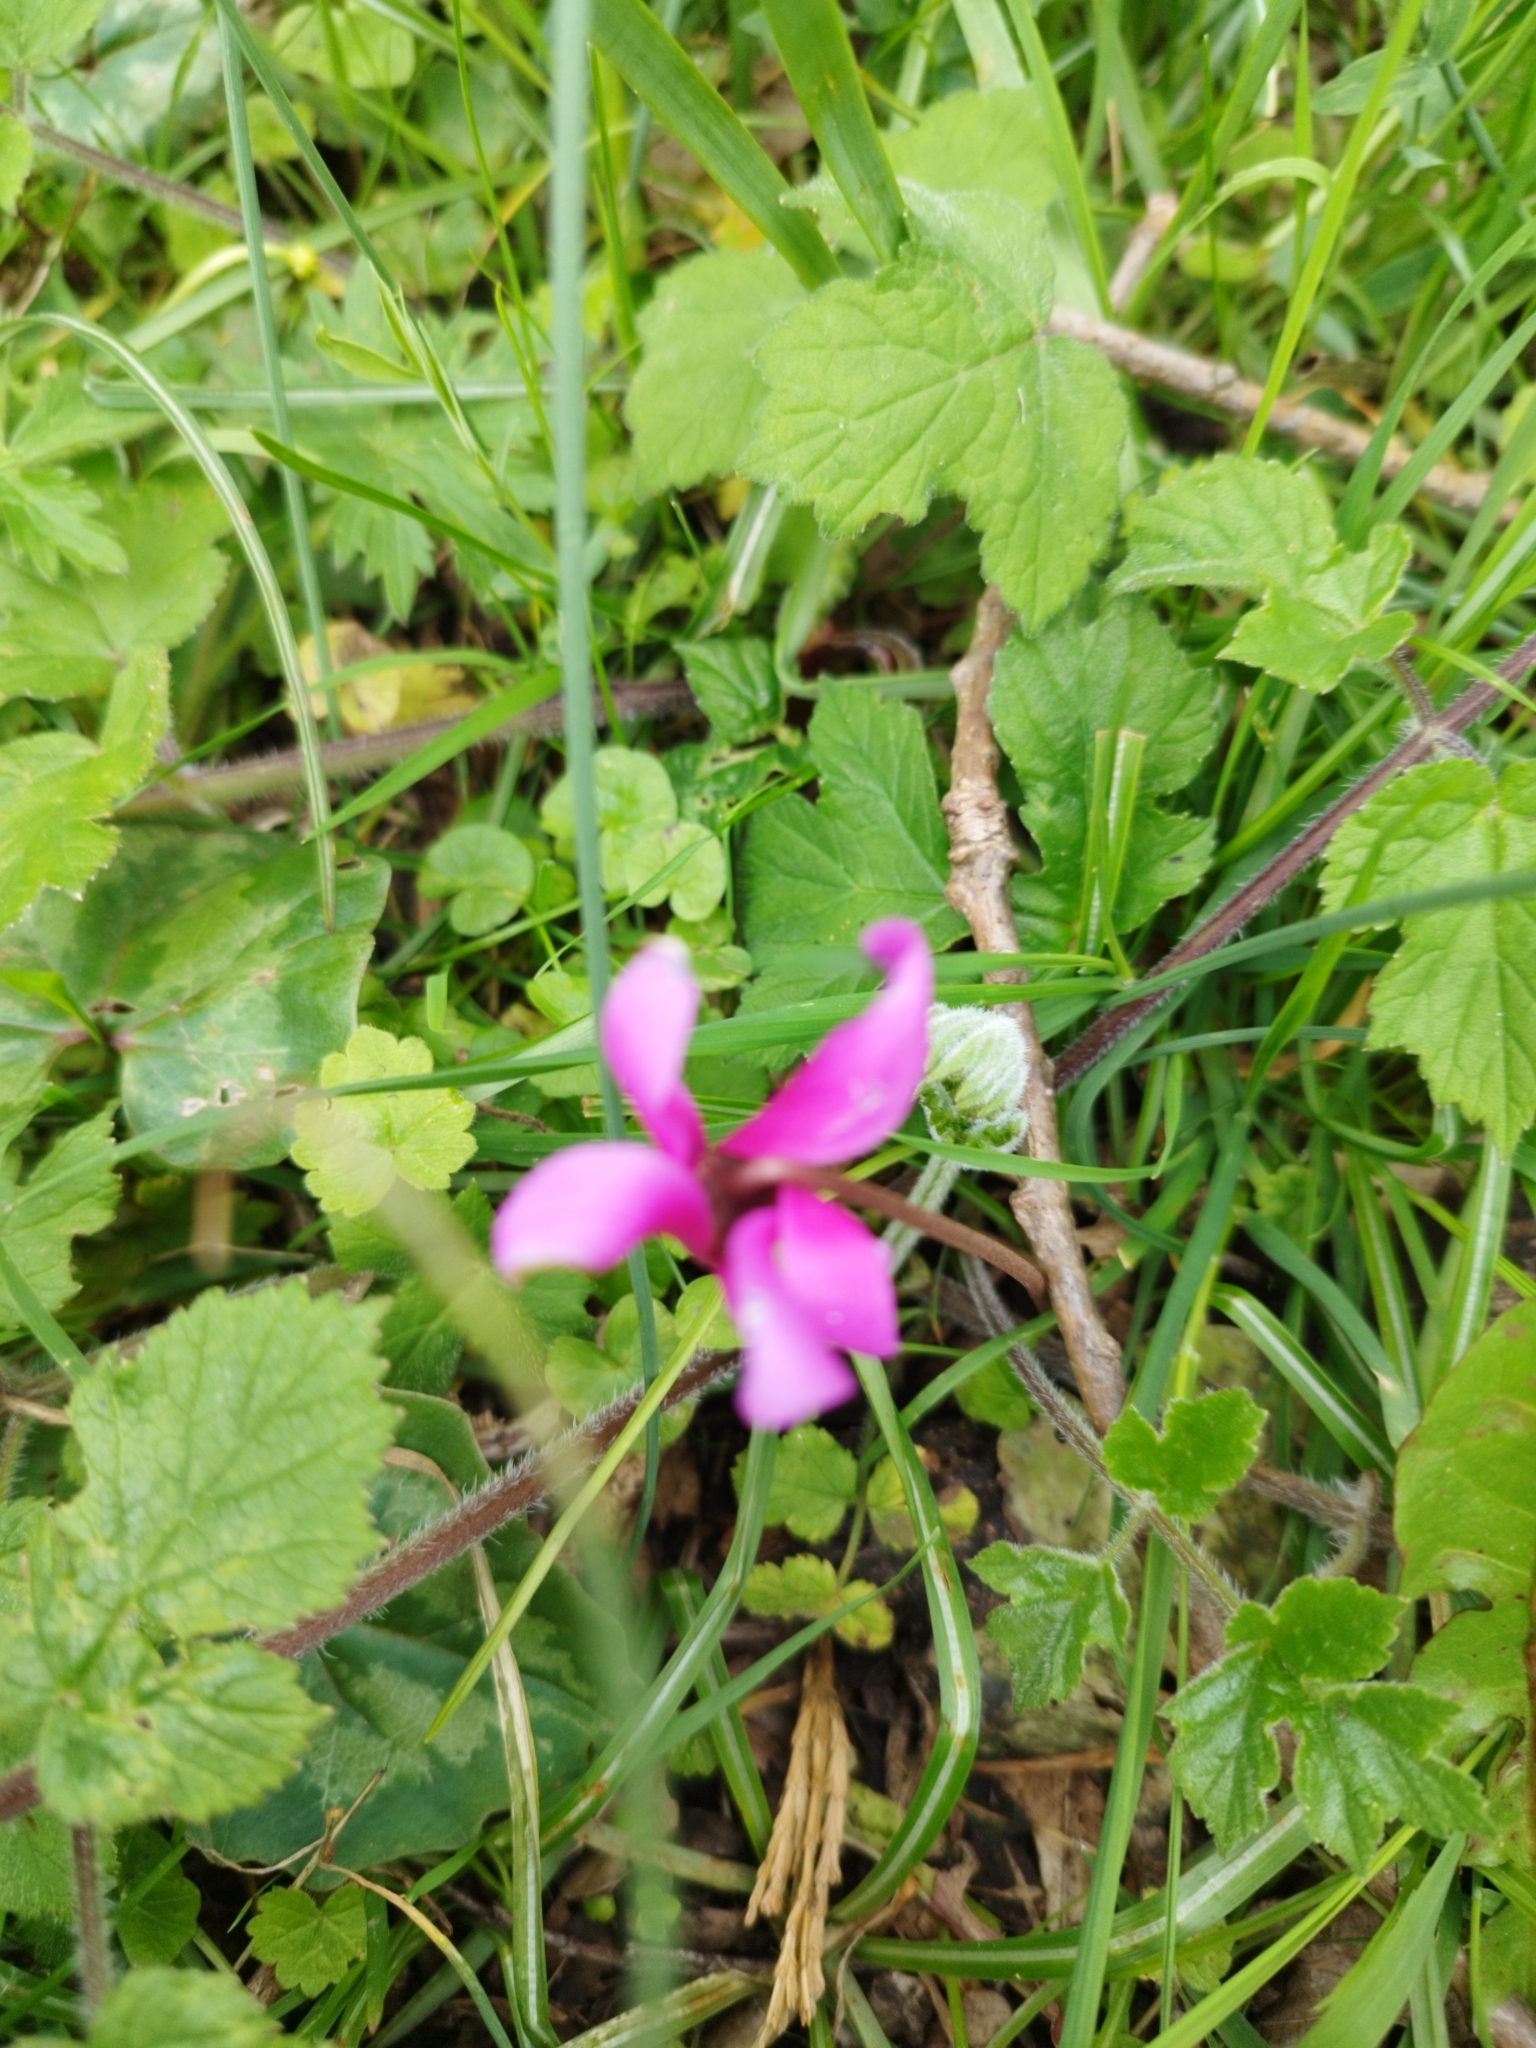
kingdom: Plantae
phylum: Tracheophyta
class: Magnoliopsida
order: Ericales
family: Primulaceae
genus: Cyclamen
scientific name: Cyclamen repandum
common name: Spring sowbread
